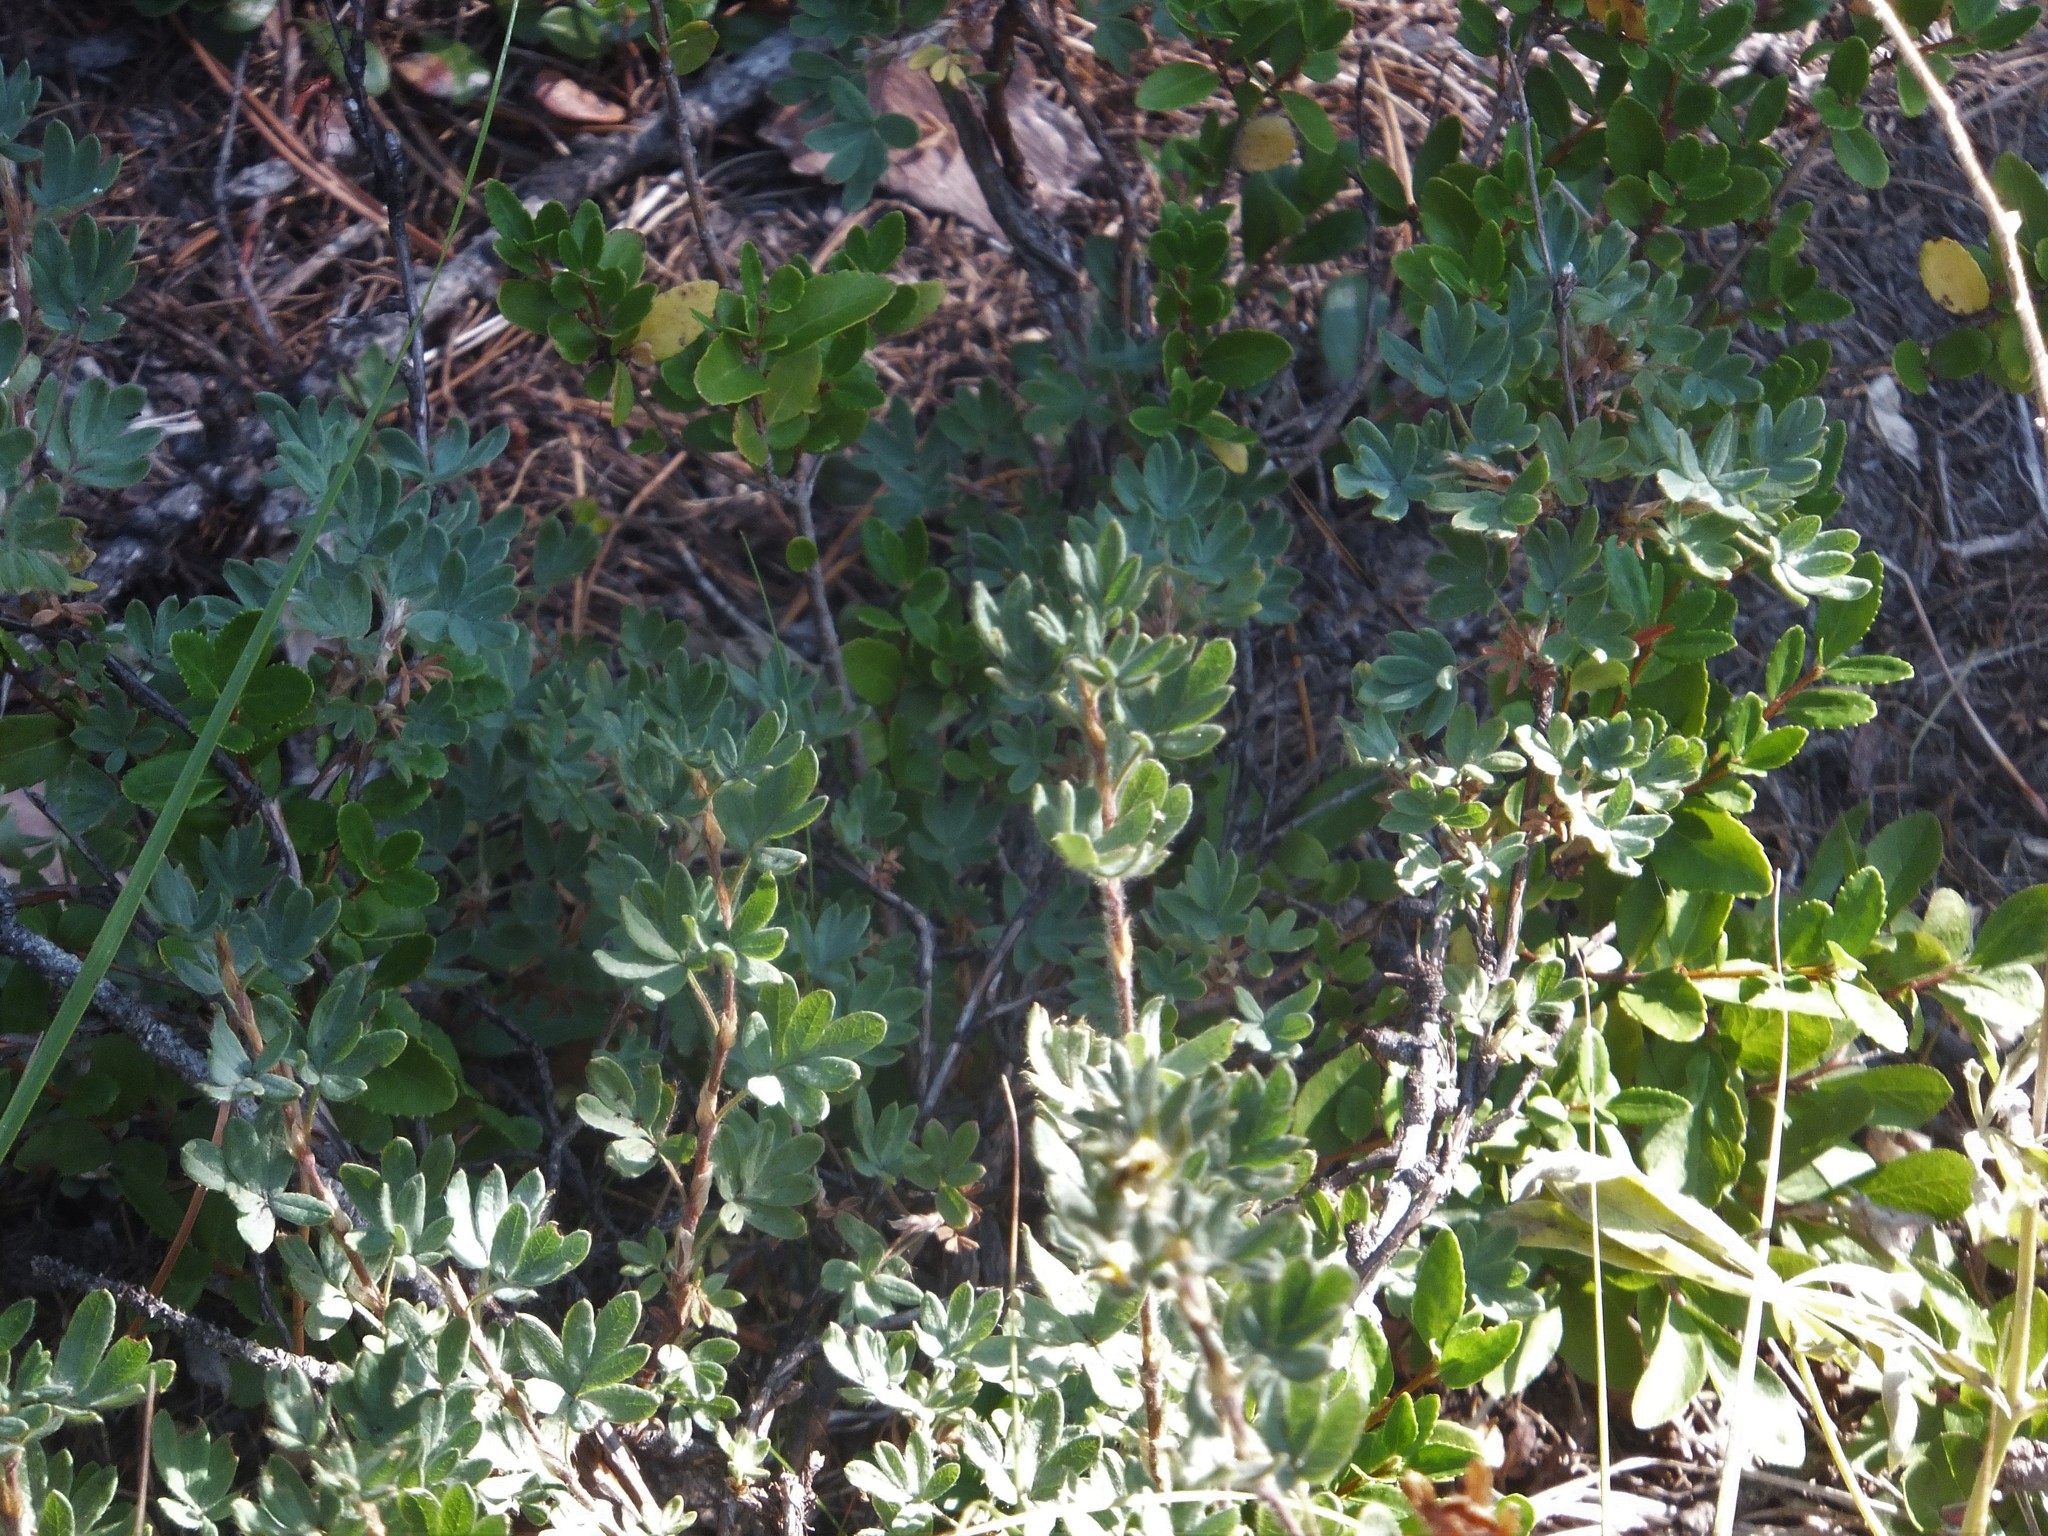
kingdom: Plantae
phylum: Tracheophyta
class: Magnoliopsida
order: Rosales
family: Rosaceae
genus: Dasiphora
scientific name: Dasiphora fruticosa
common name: Shrubby cinquefoil
